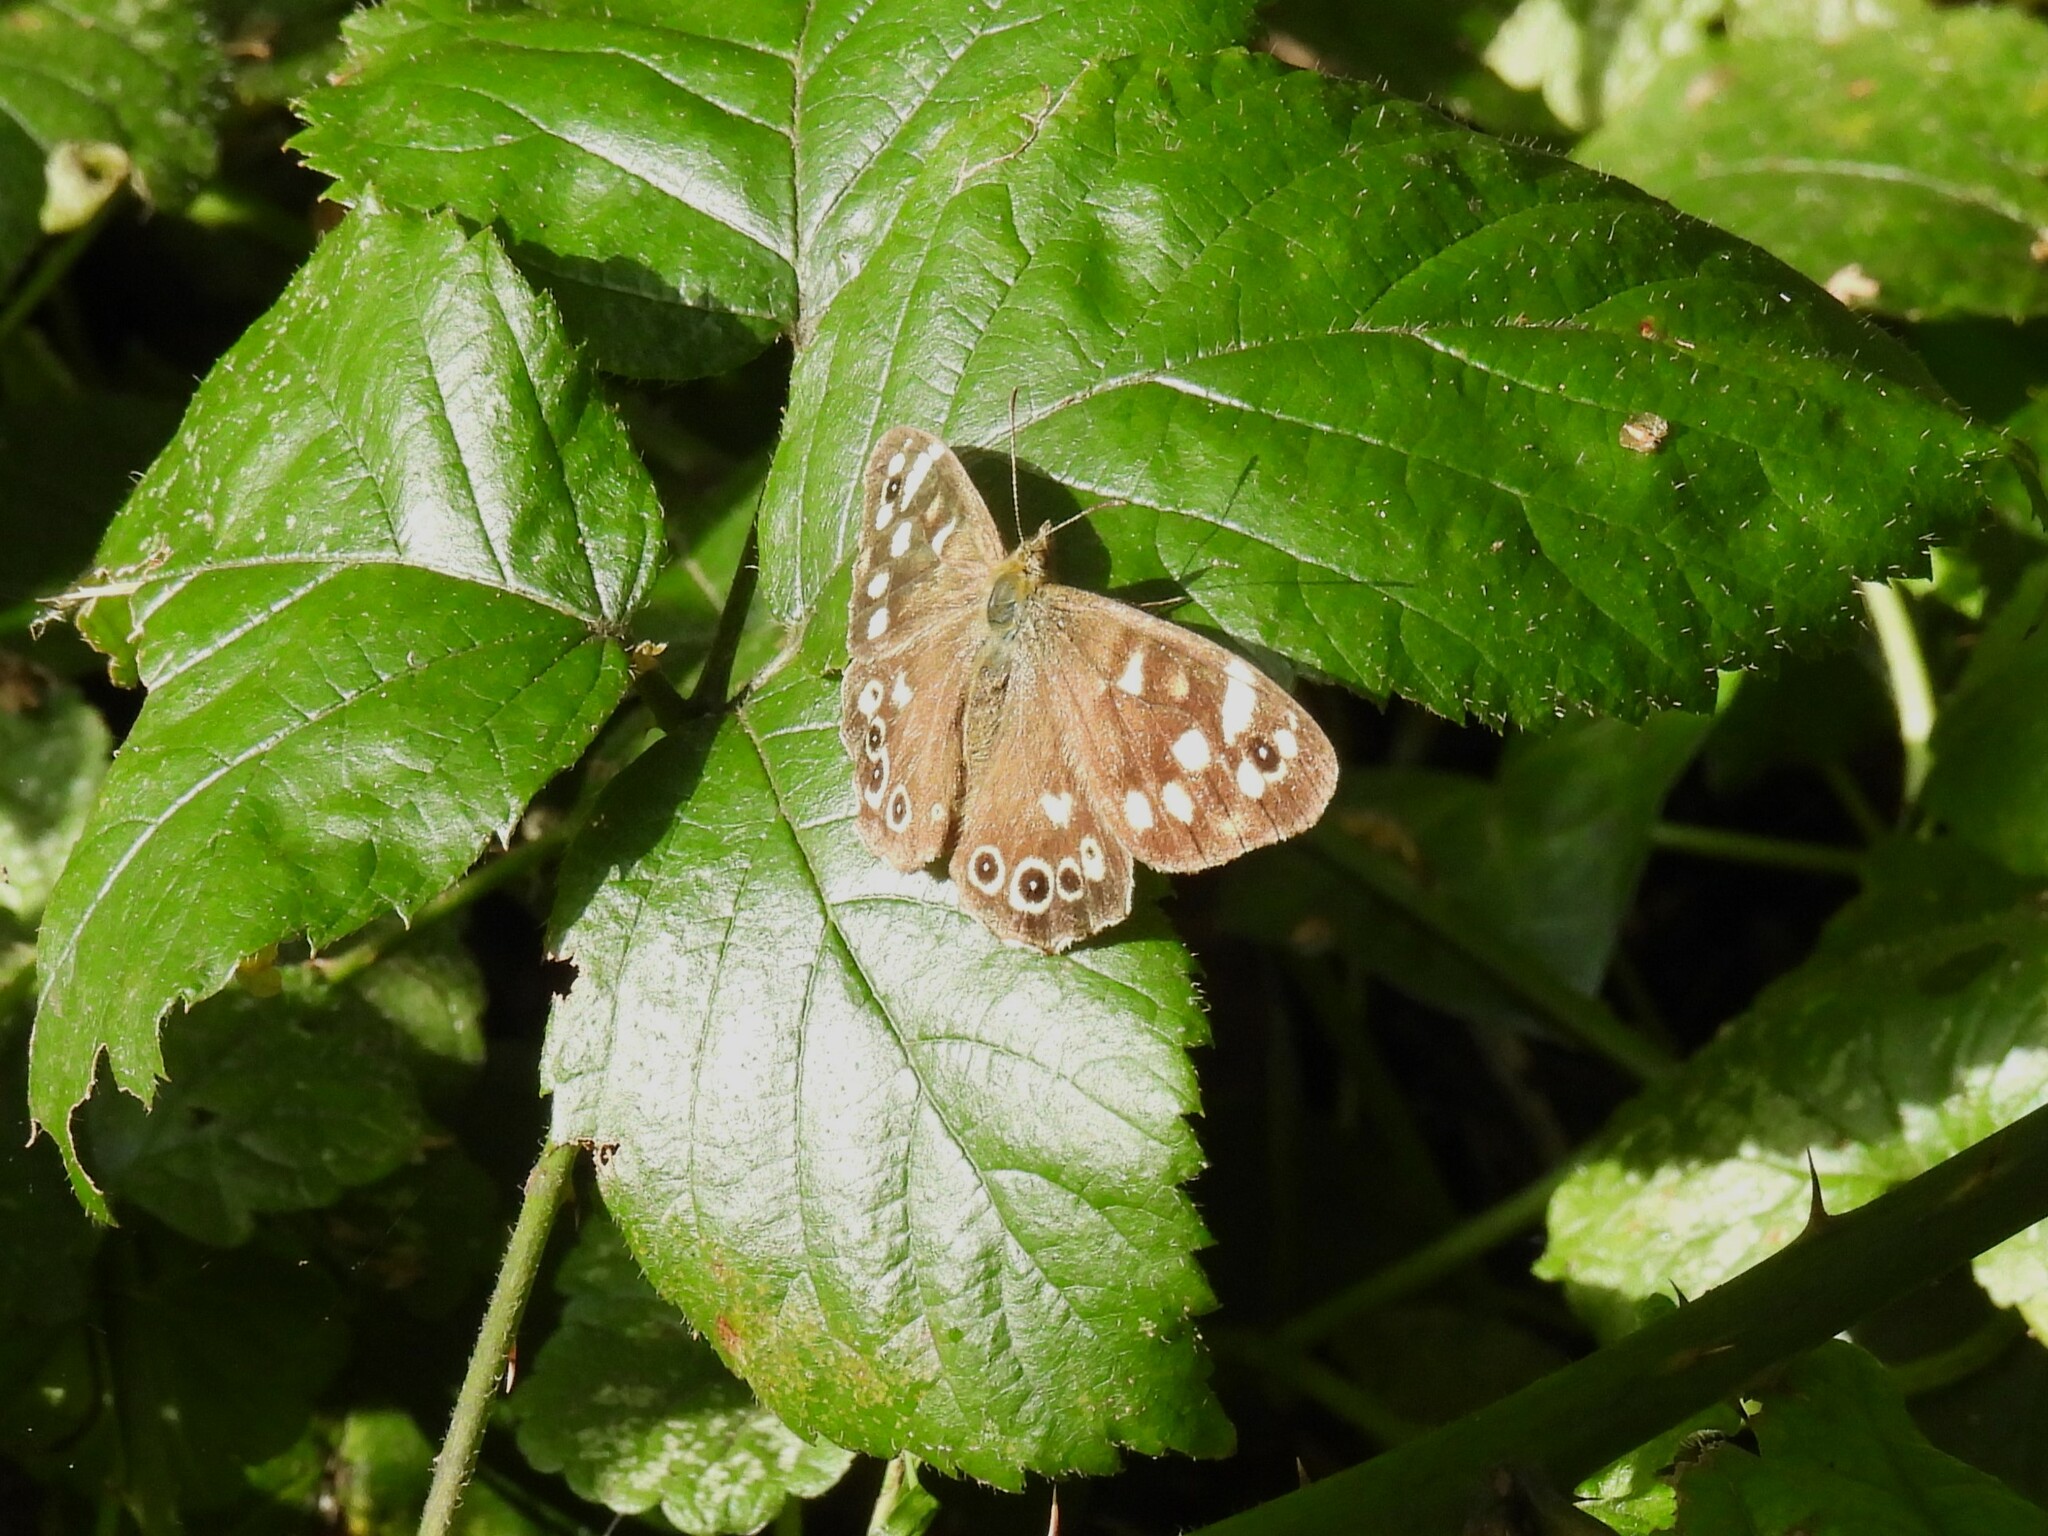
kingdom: Animalia
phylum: Arthropoda
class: Insecta
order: Lepidoptera
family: Nymphalidae
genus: Pararge
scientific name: Pararge aegeria
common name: Speckled wood
